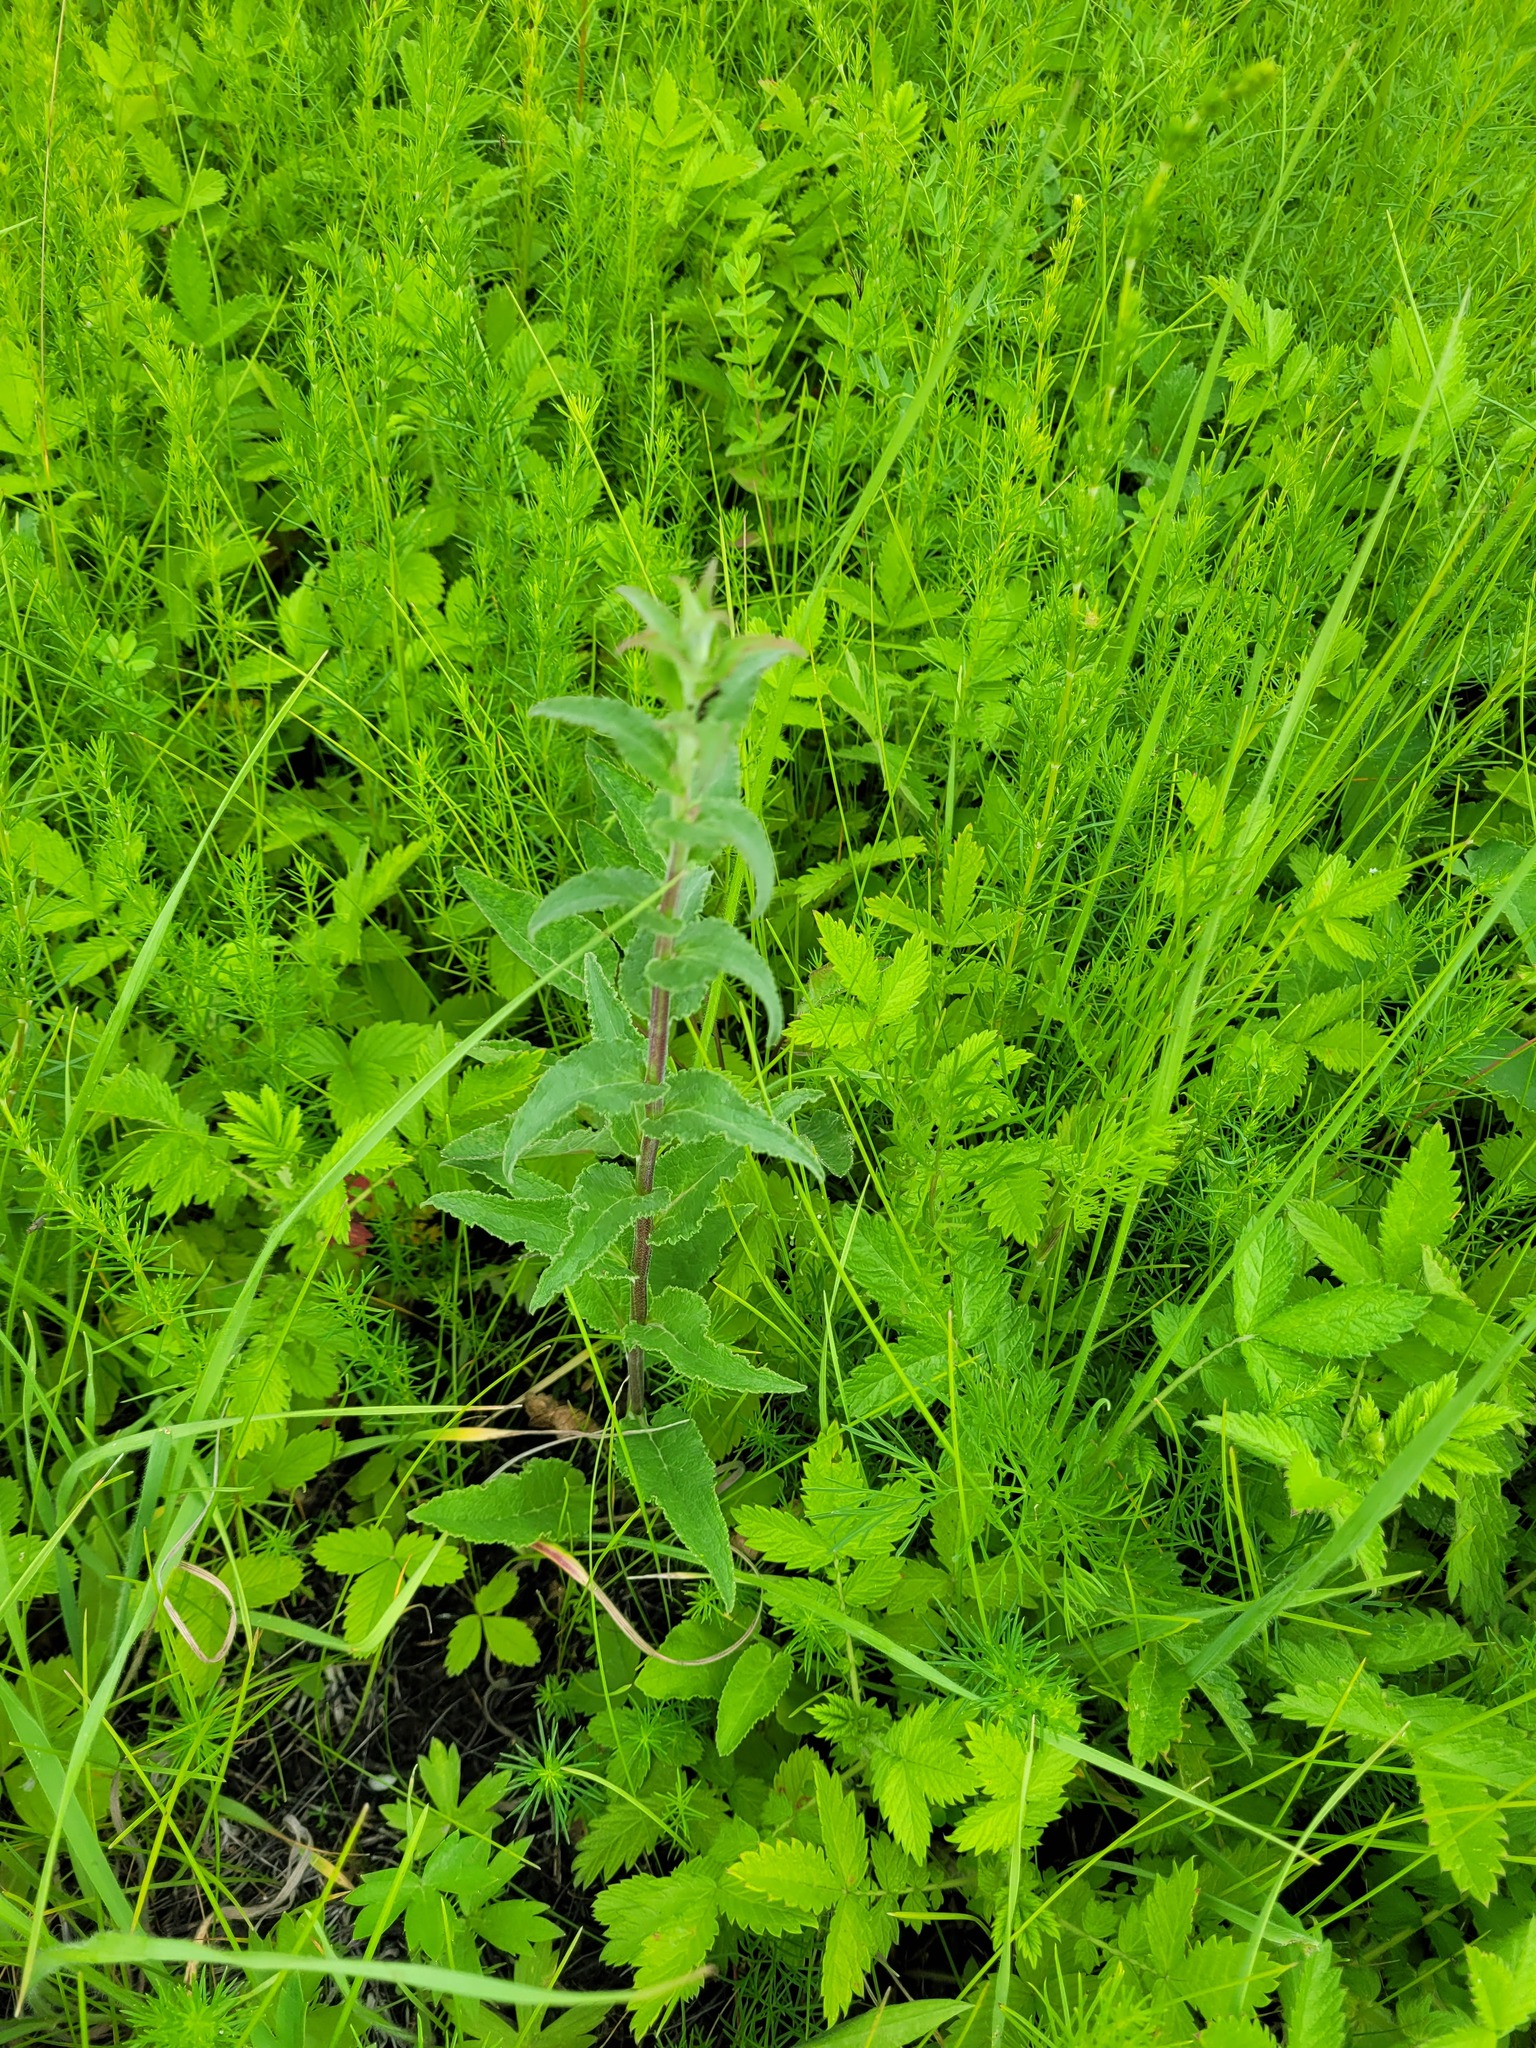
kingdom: Plantae
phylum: Tracheophyta
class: Magnoliopsida
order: Asterales
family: Campanulaceae
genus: Campanula
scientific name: Campanula glomerata
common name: Clustered bellflower
